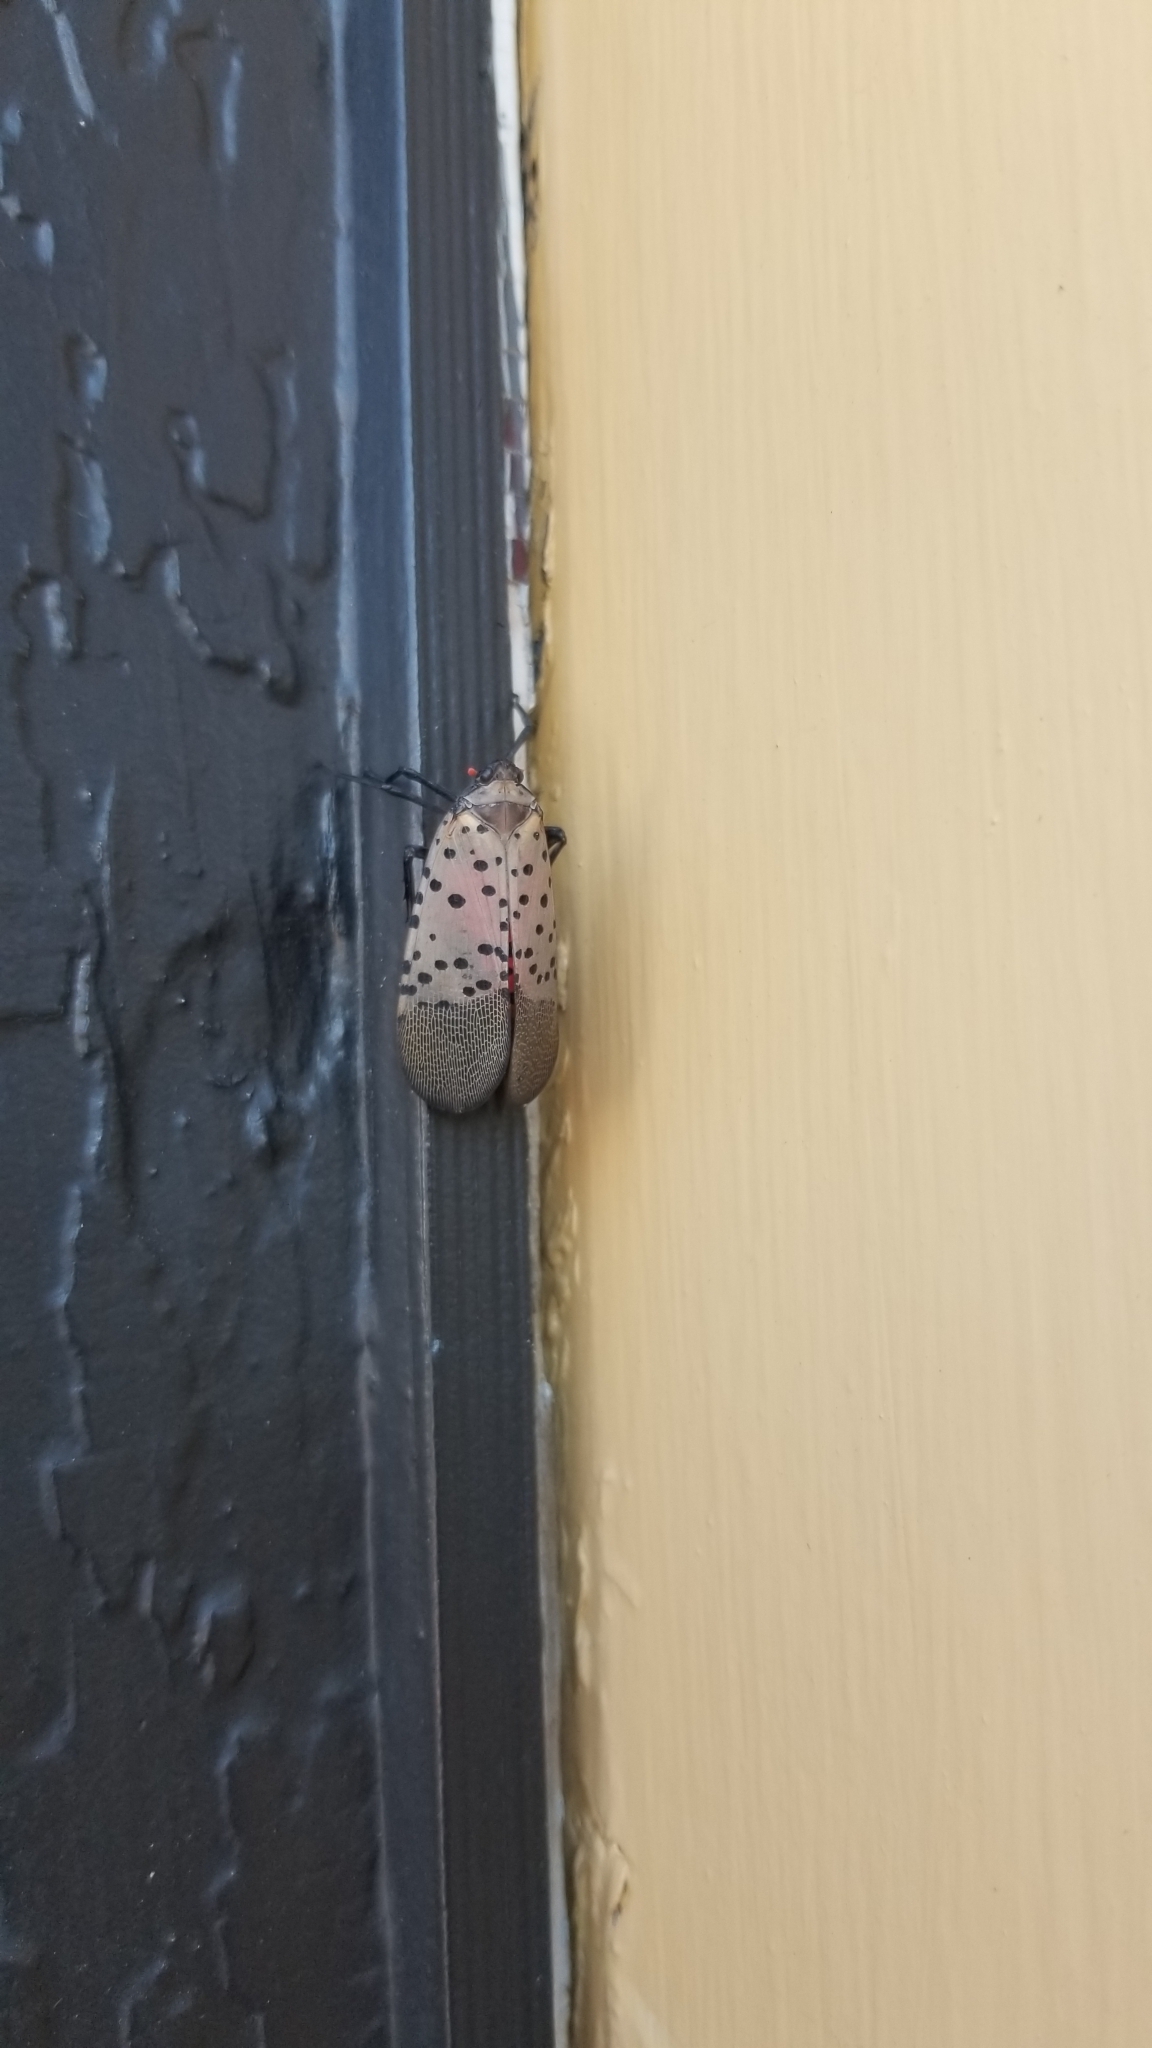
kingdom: Animalia
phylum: Arthropoda
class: Insecta
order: Hemiptera
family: Fulgoridae
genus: Lycorma
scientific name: Lycorma delicatula
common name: Spotted lanternfly
